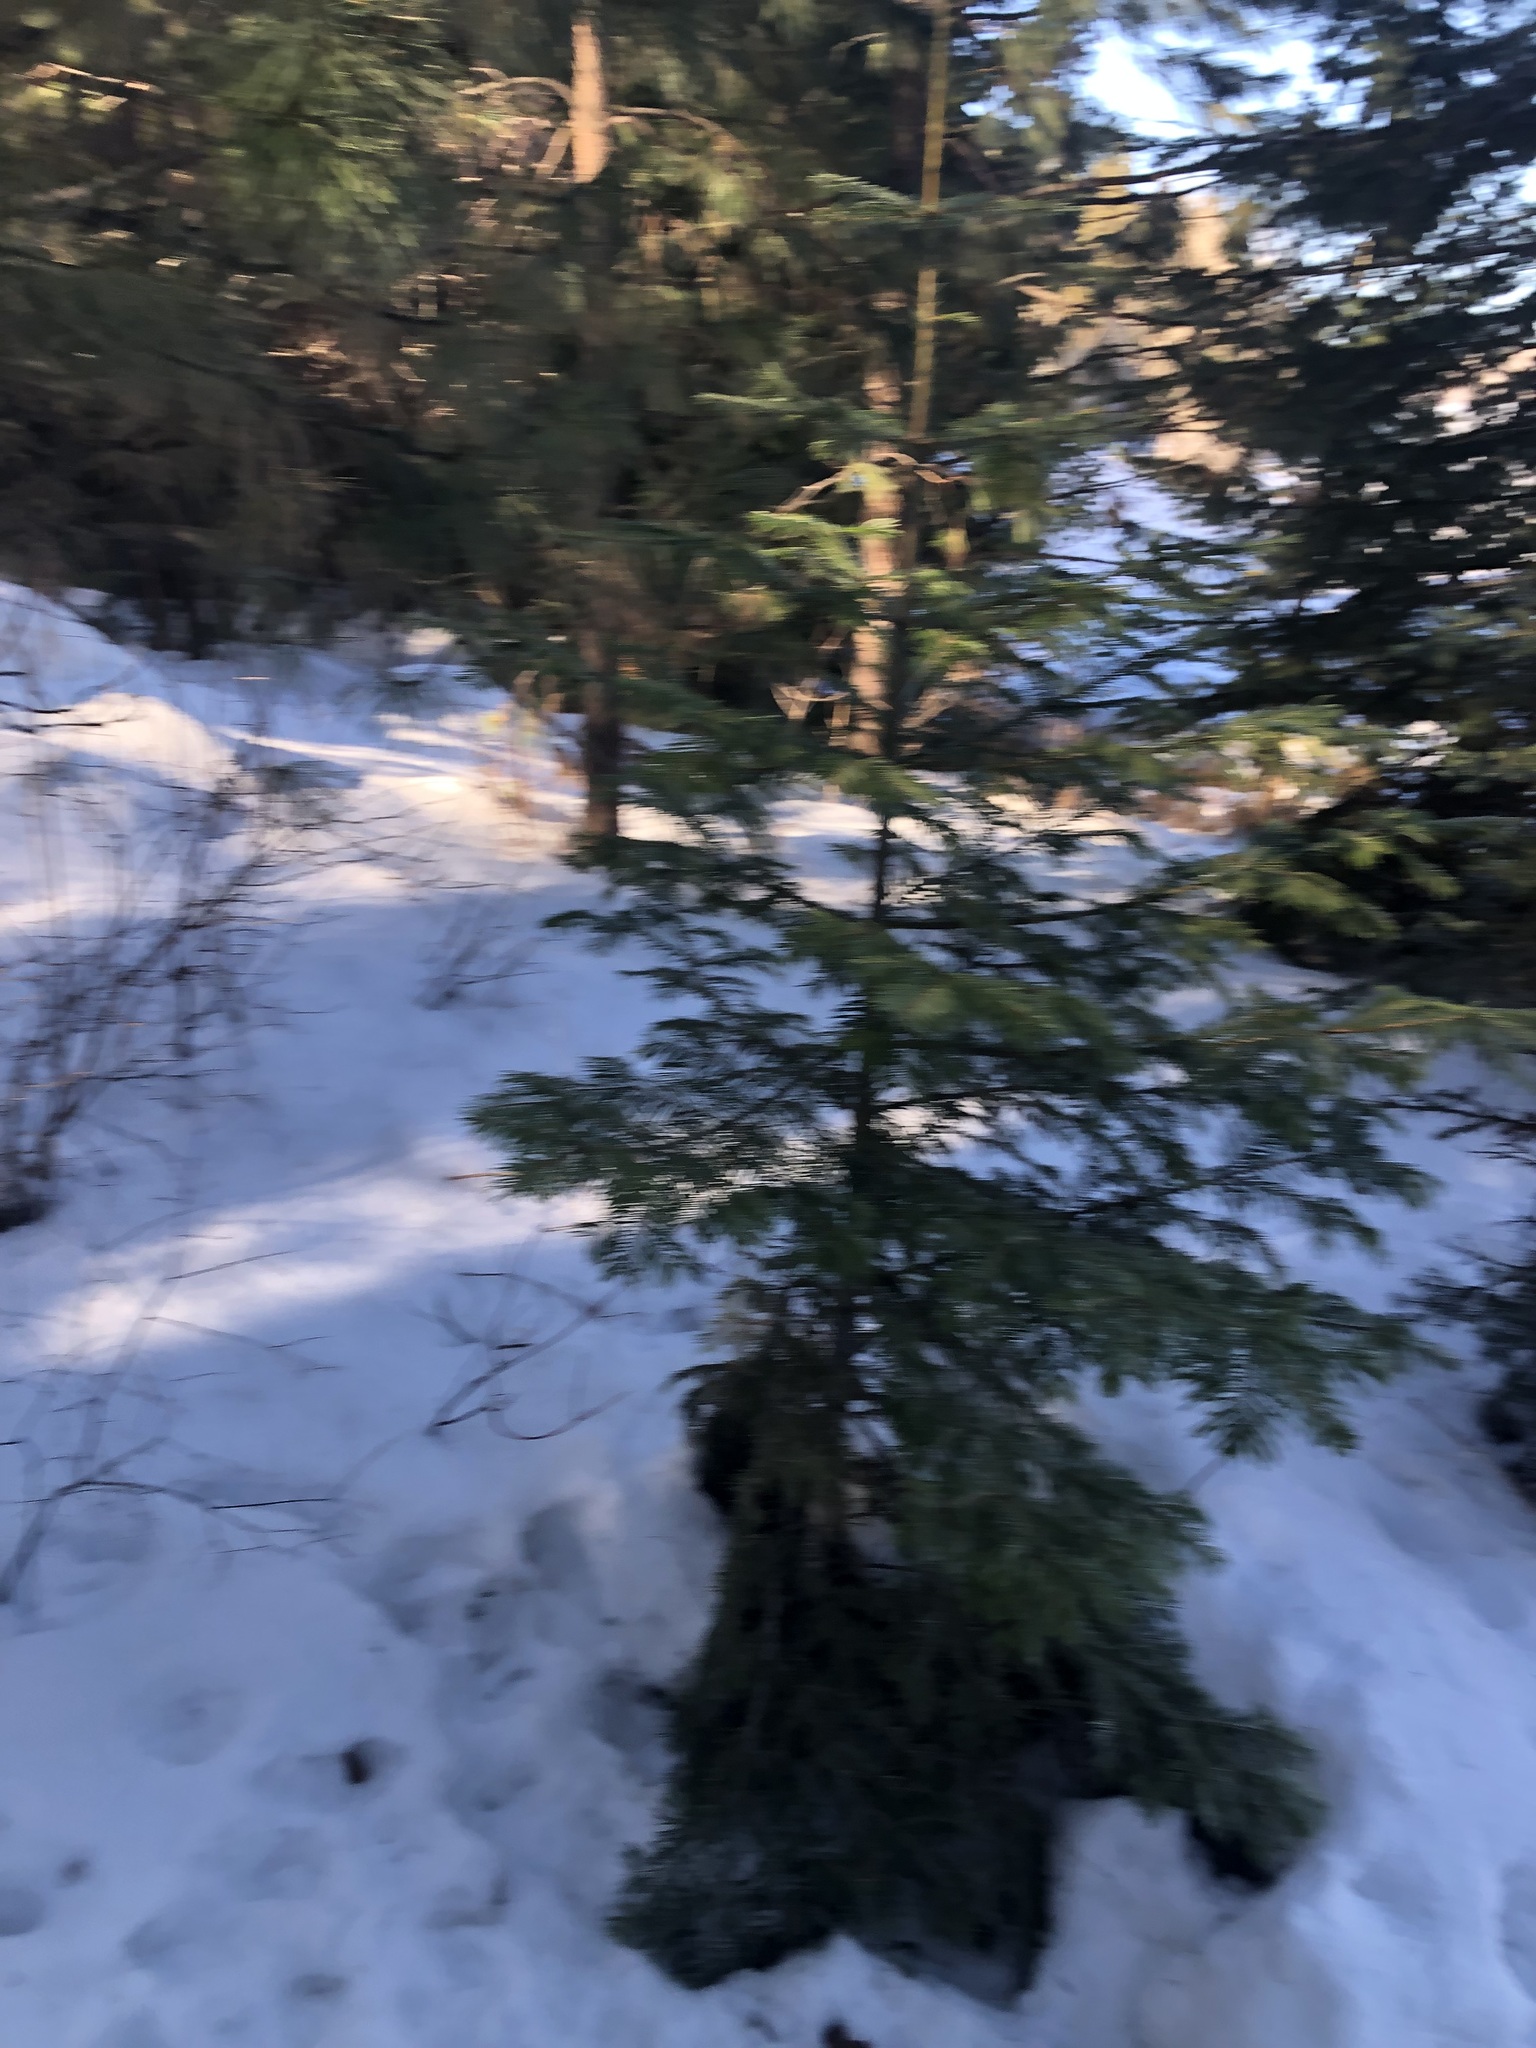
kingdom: Plantae
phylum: Tracheophyta
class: Pinopsida
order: Pinales
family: Pinaceae
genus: Abies
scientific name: Abies grandis
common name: Giant fir
